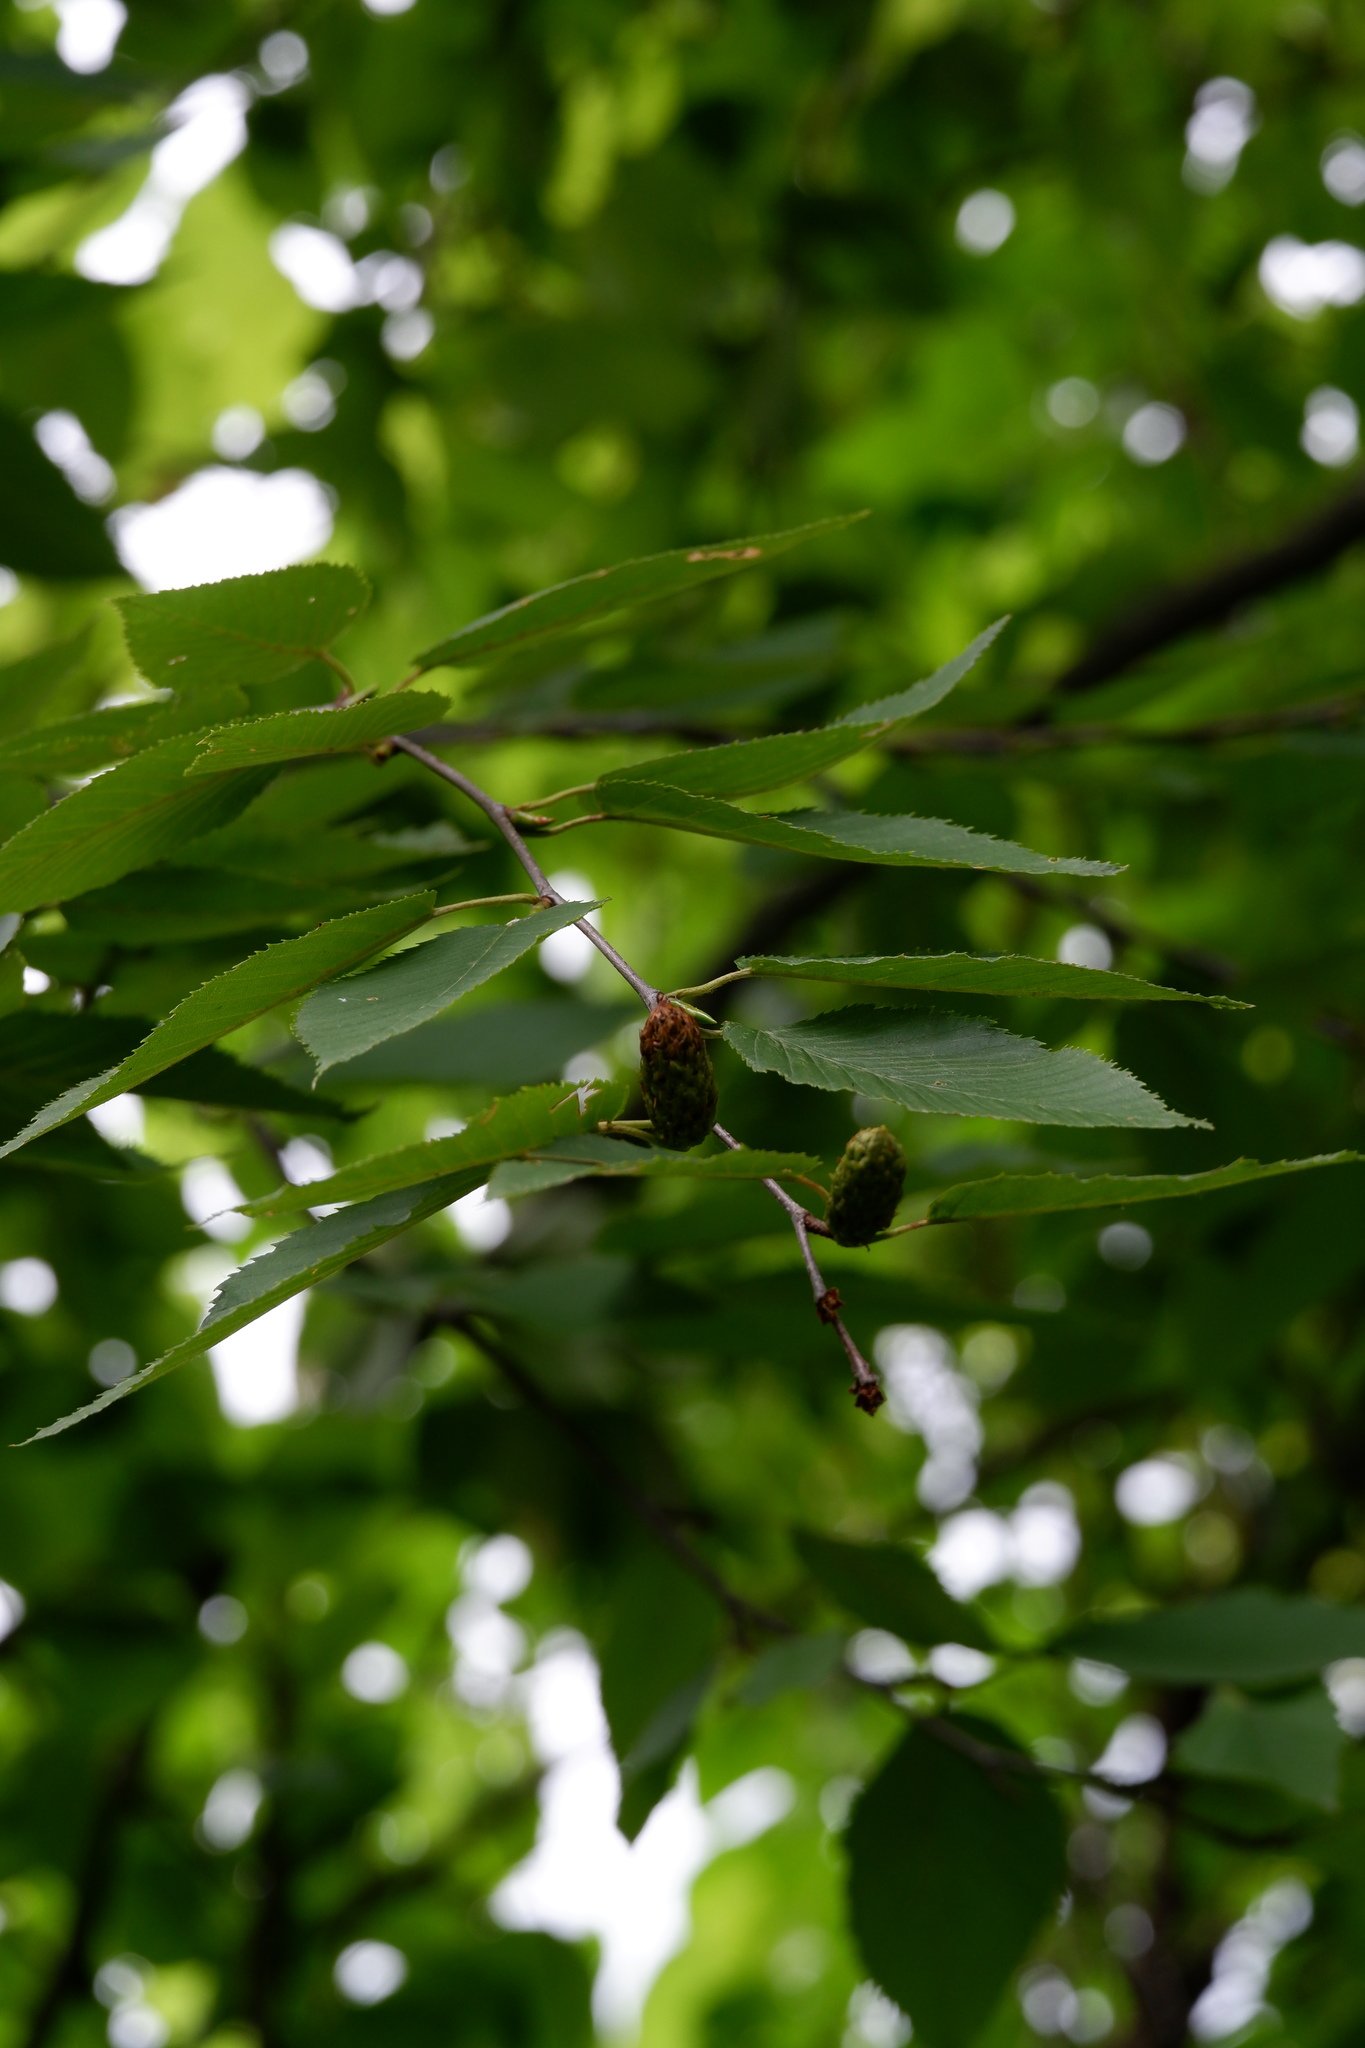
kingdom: Plantae
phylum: Tracheophyta
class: Magnoliopsida
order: Fagales
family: Betulaceae
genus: Betula
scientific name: Betula lenta
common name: Black birch
